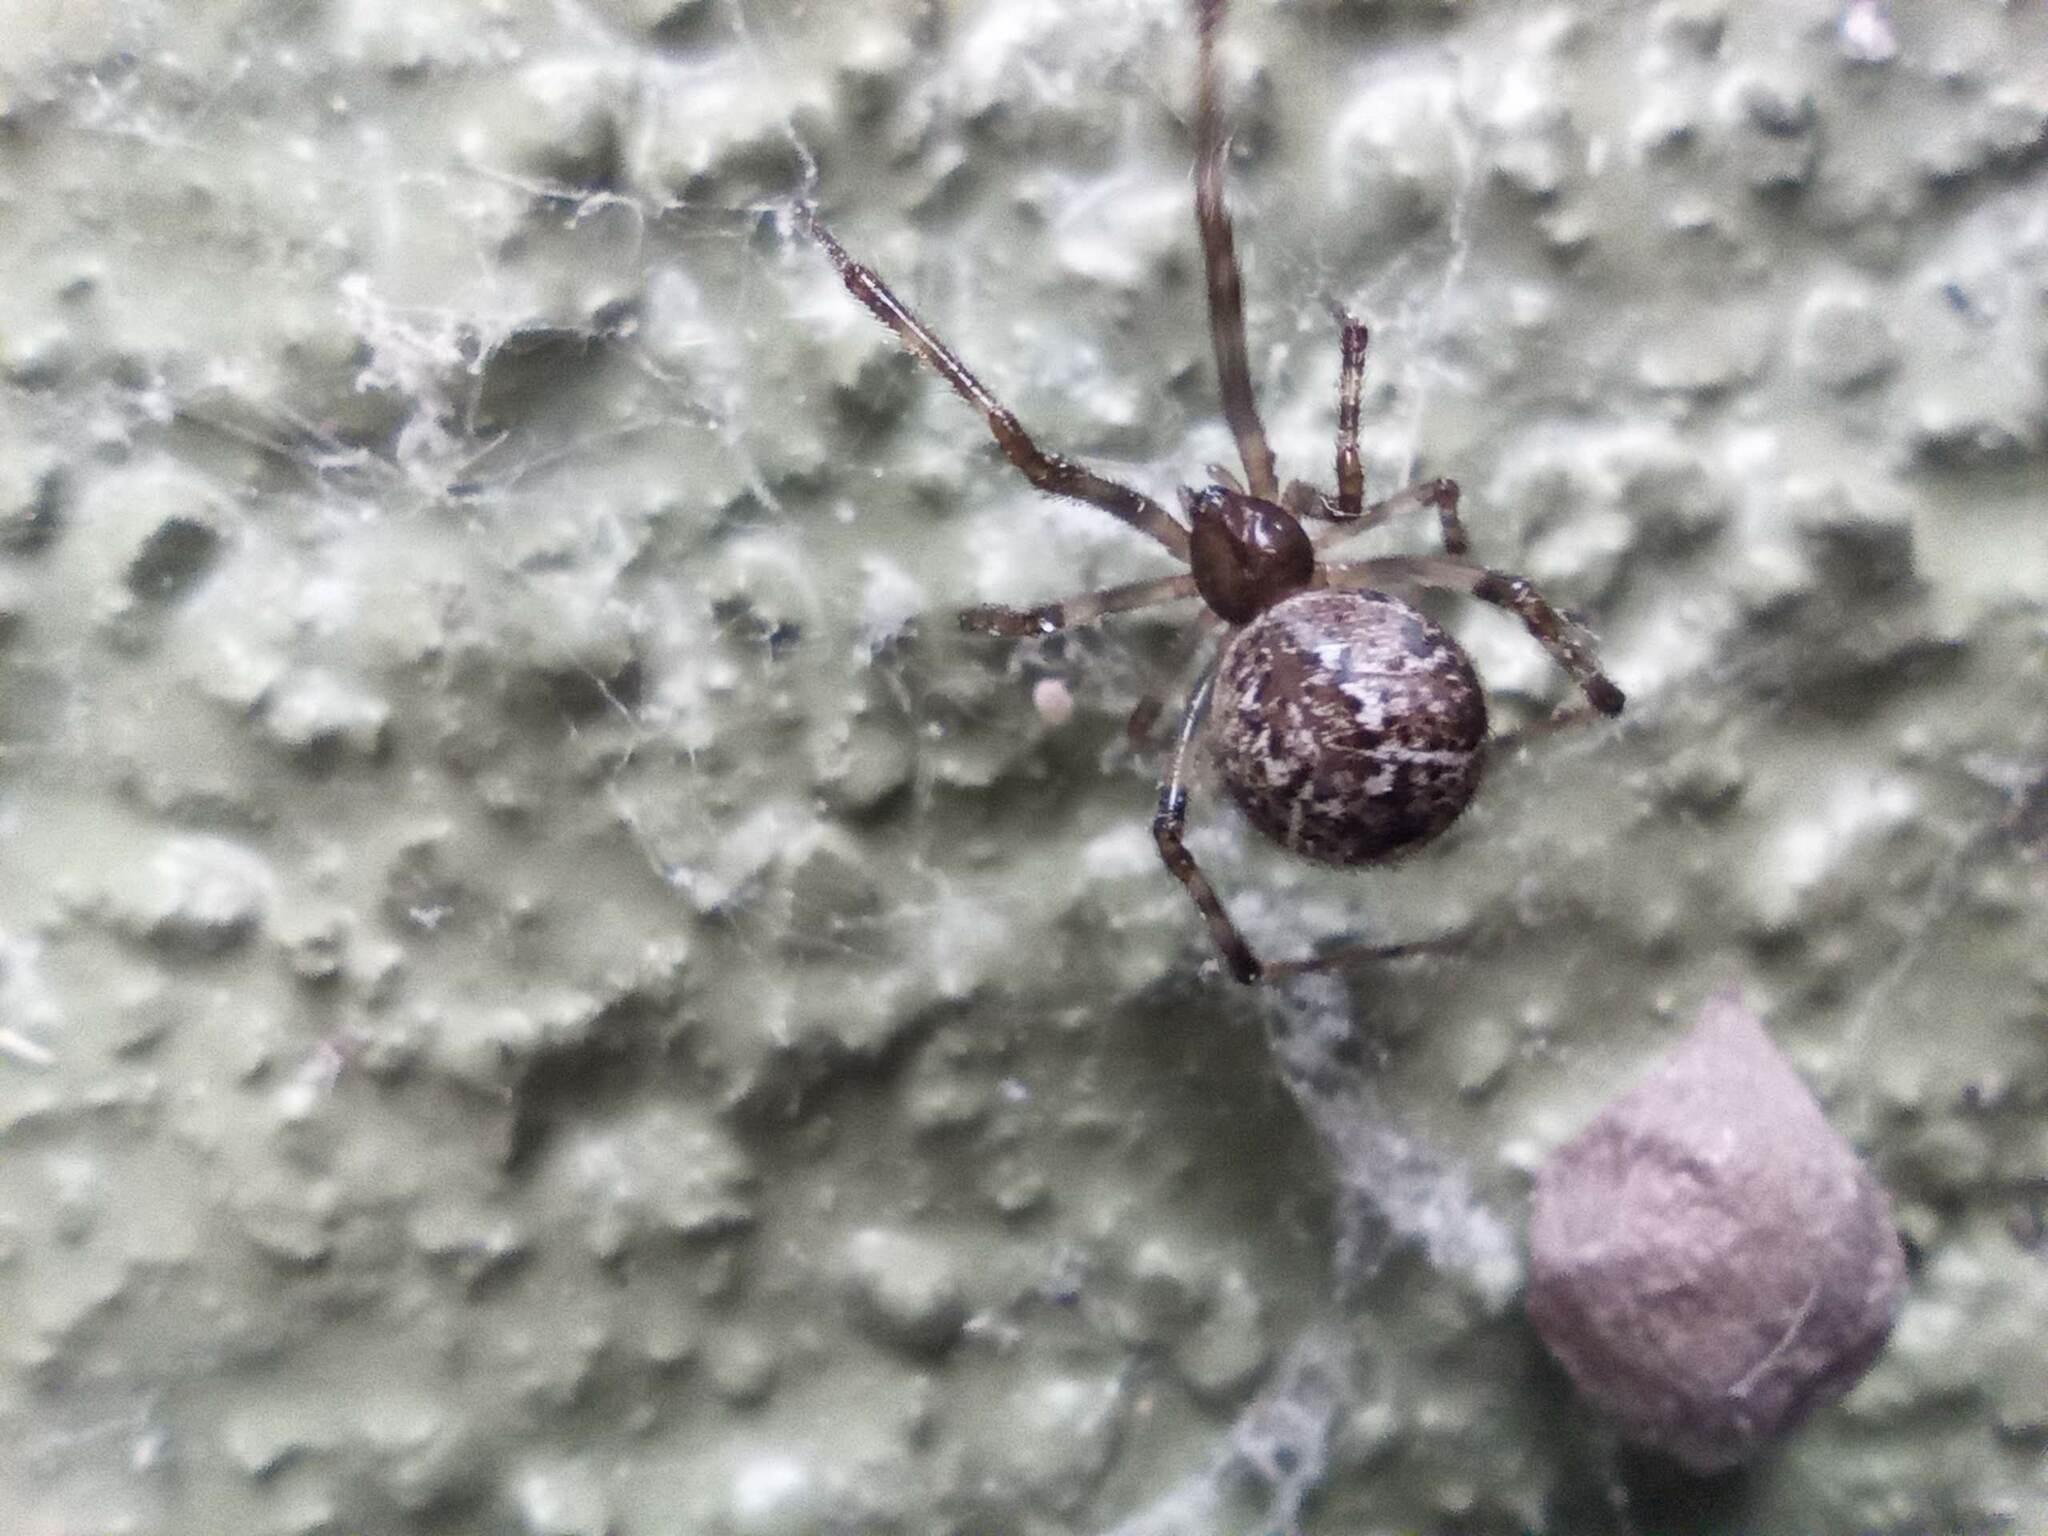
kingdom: Animalia
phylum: Arthropoda
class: Arachnida
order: Araneae
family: Theridiidae
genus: Parasteatoda
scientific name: Parasteatoda tepidariorum
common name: Common house spider
